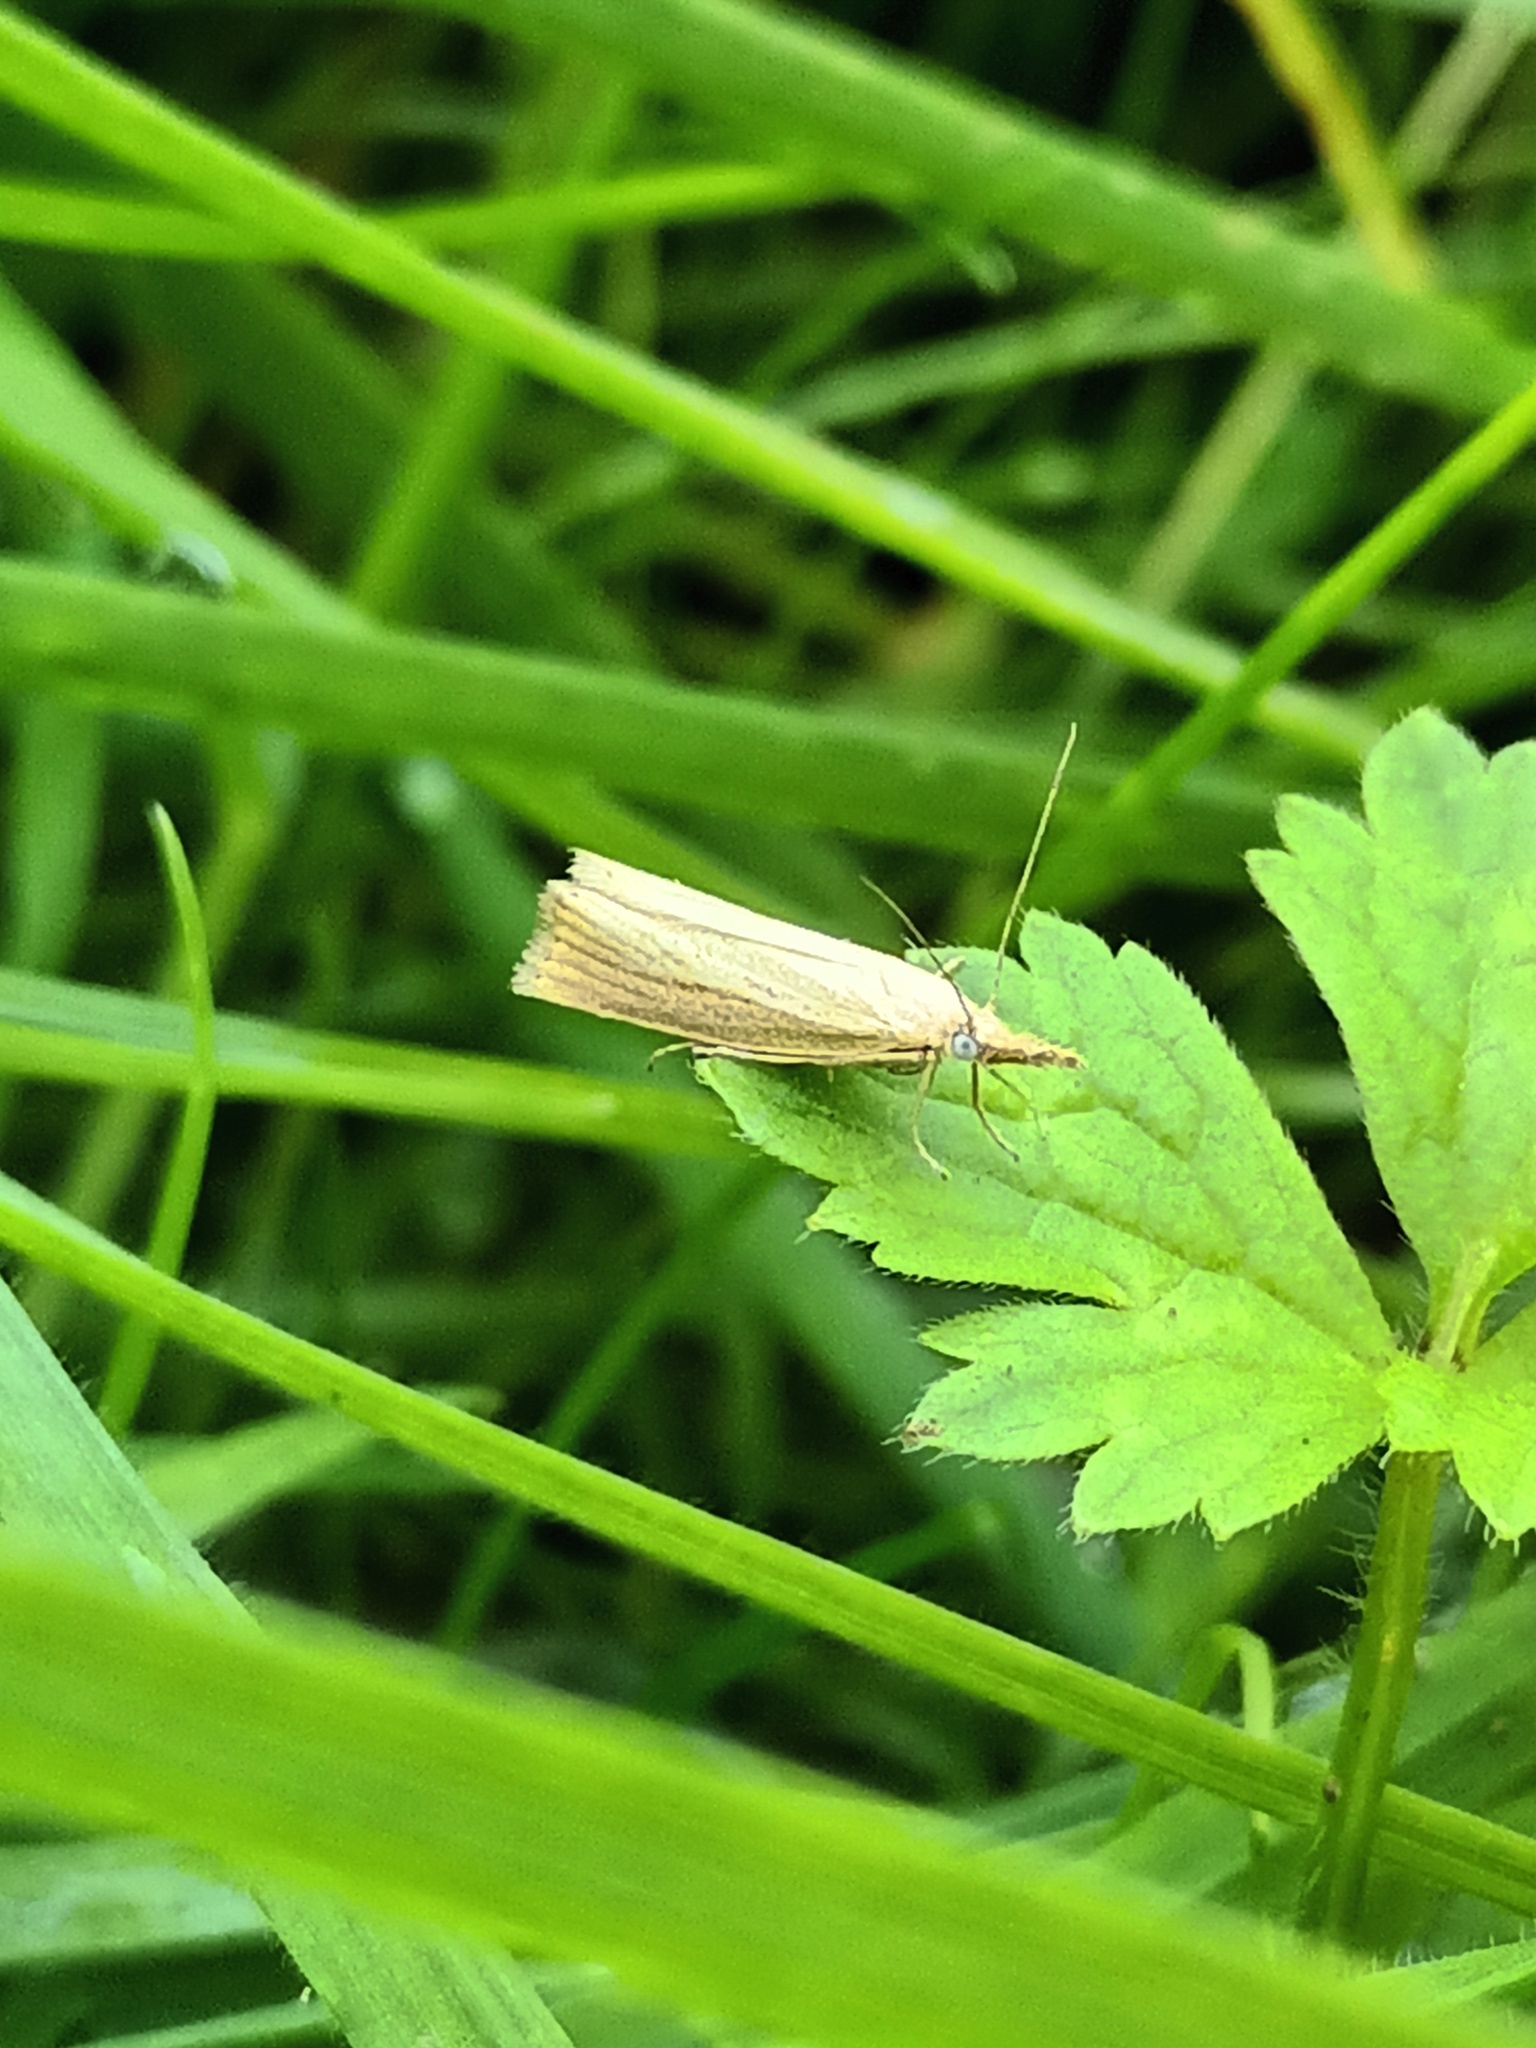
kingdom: Animalia
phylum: Arthropoda
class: Insecta
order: Lepidoptera
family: Crambidae
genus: Agriphila
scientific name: Agriphila straminella
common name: Straw grass-veneer
